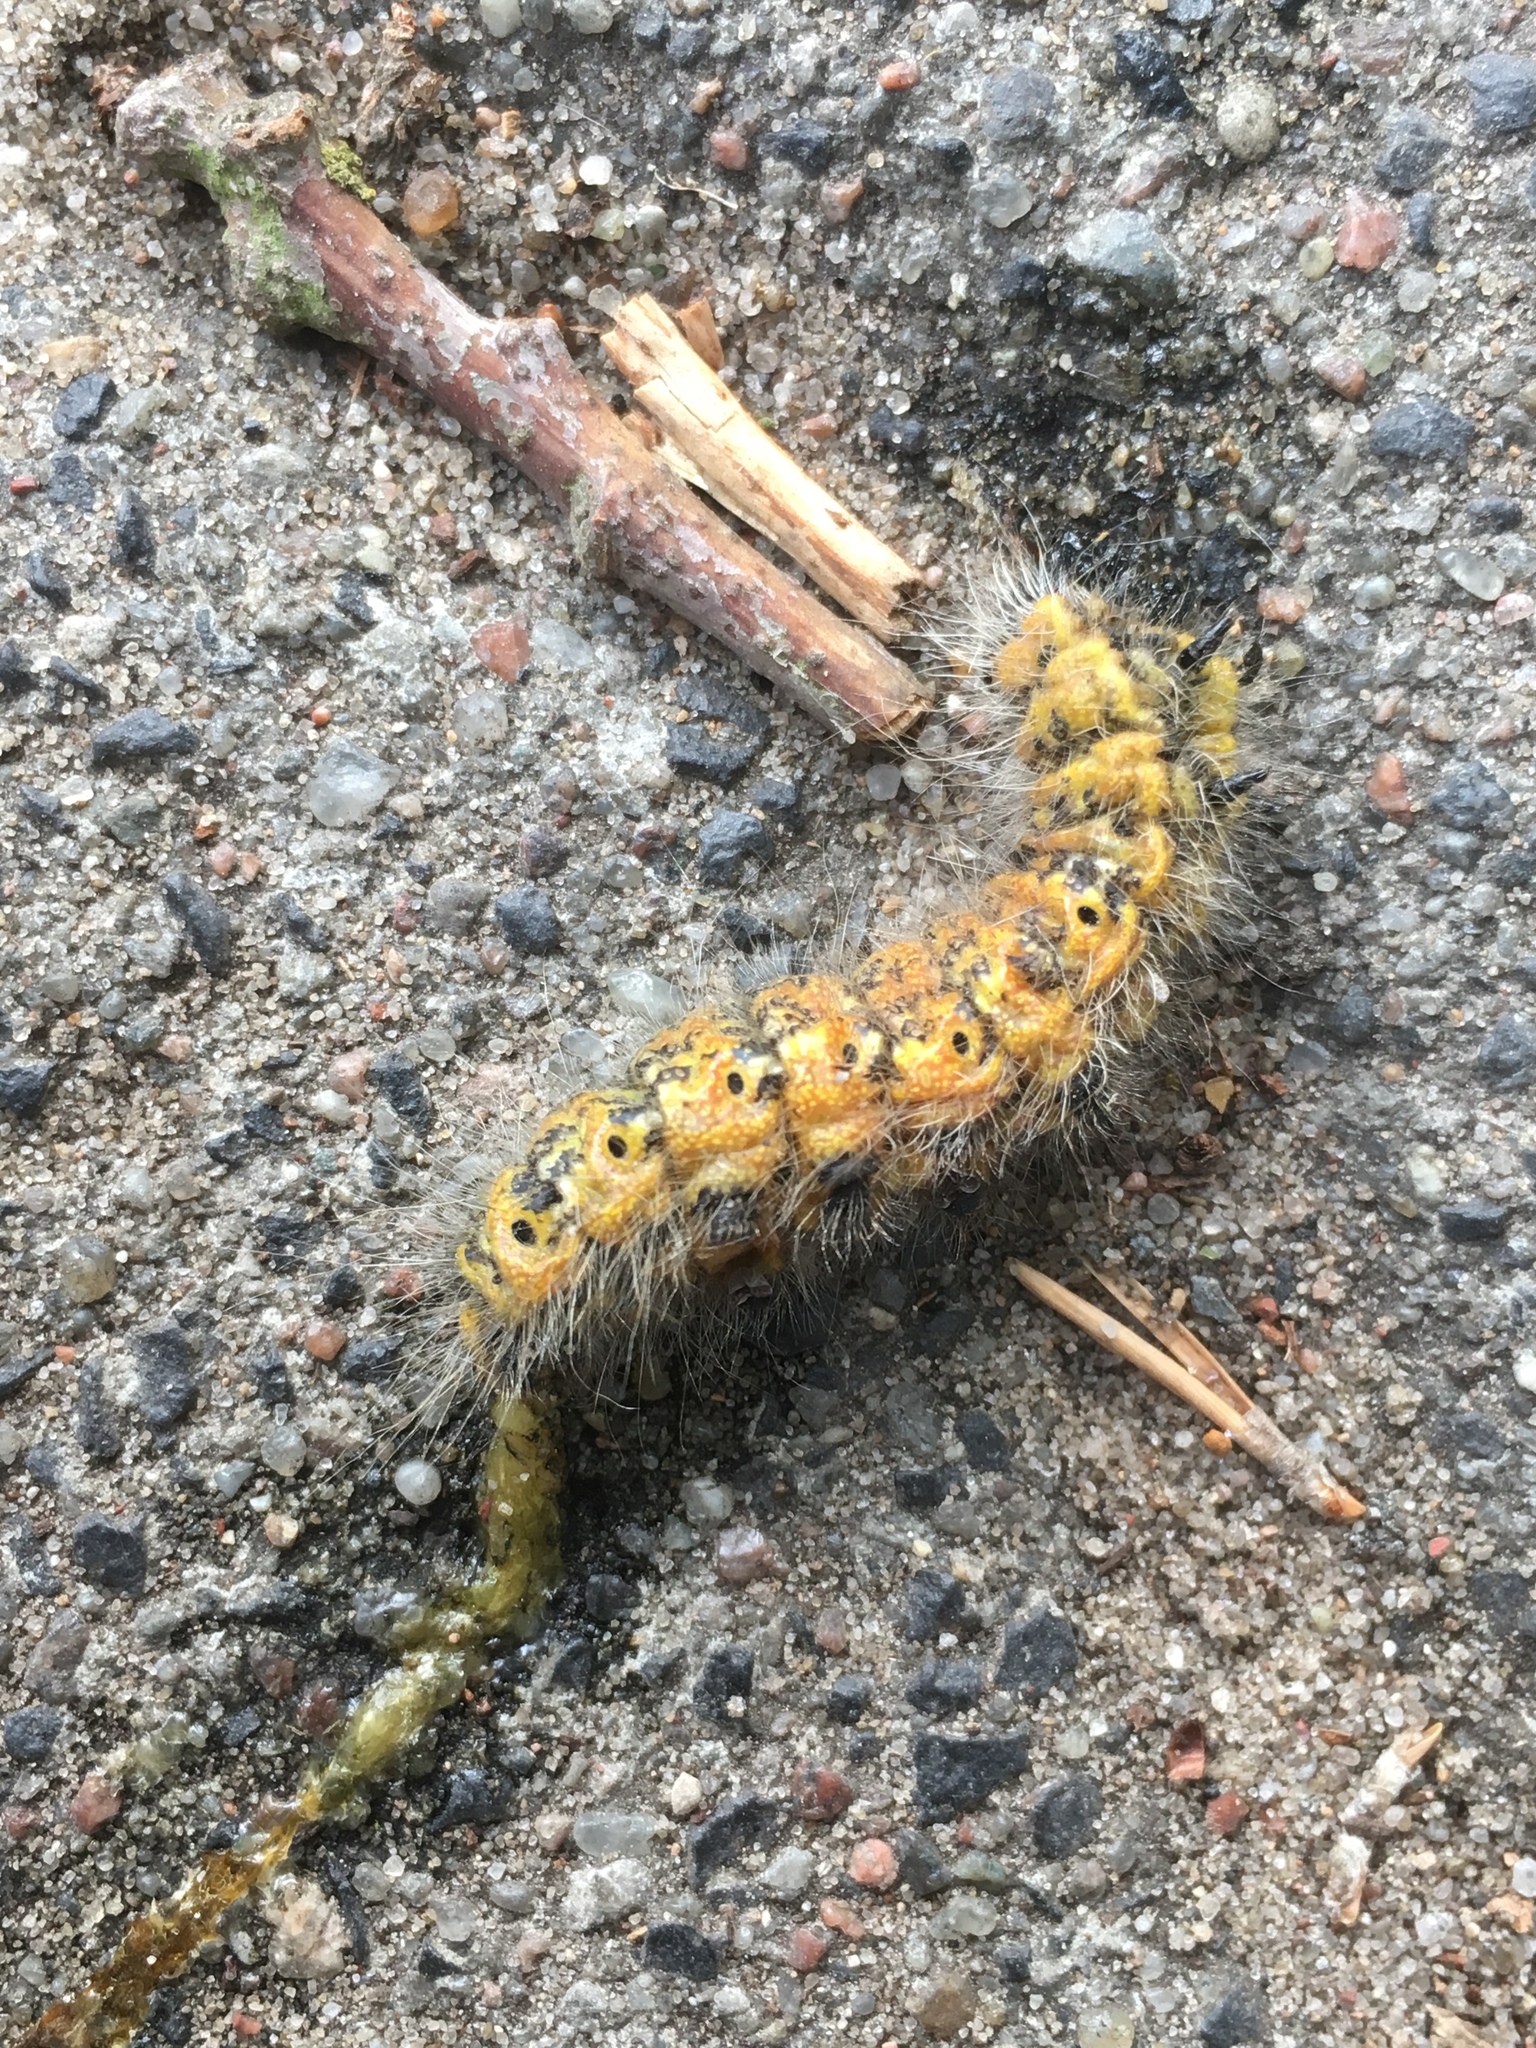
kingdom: Animalia
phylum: Arthropoda
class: Insecta
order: Lepidoptera
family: Notodontidae
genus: Phalera
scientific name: Phalera bucephala
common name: Buff-tip
